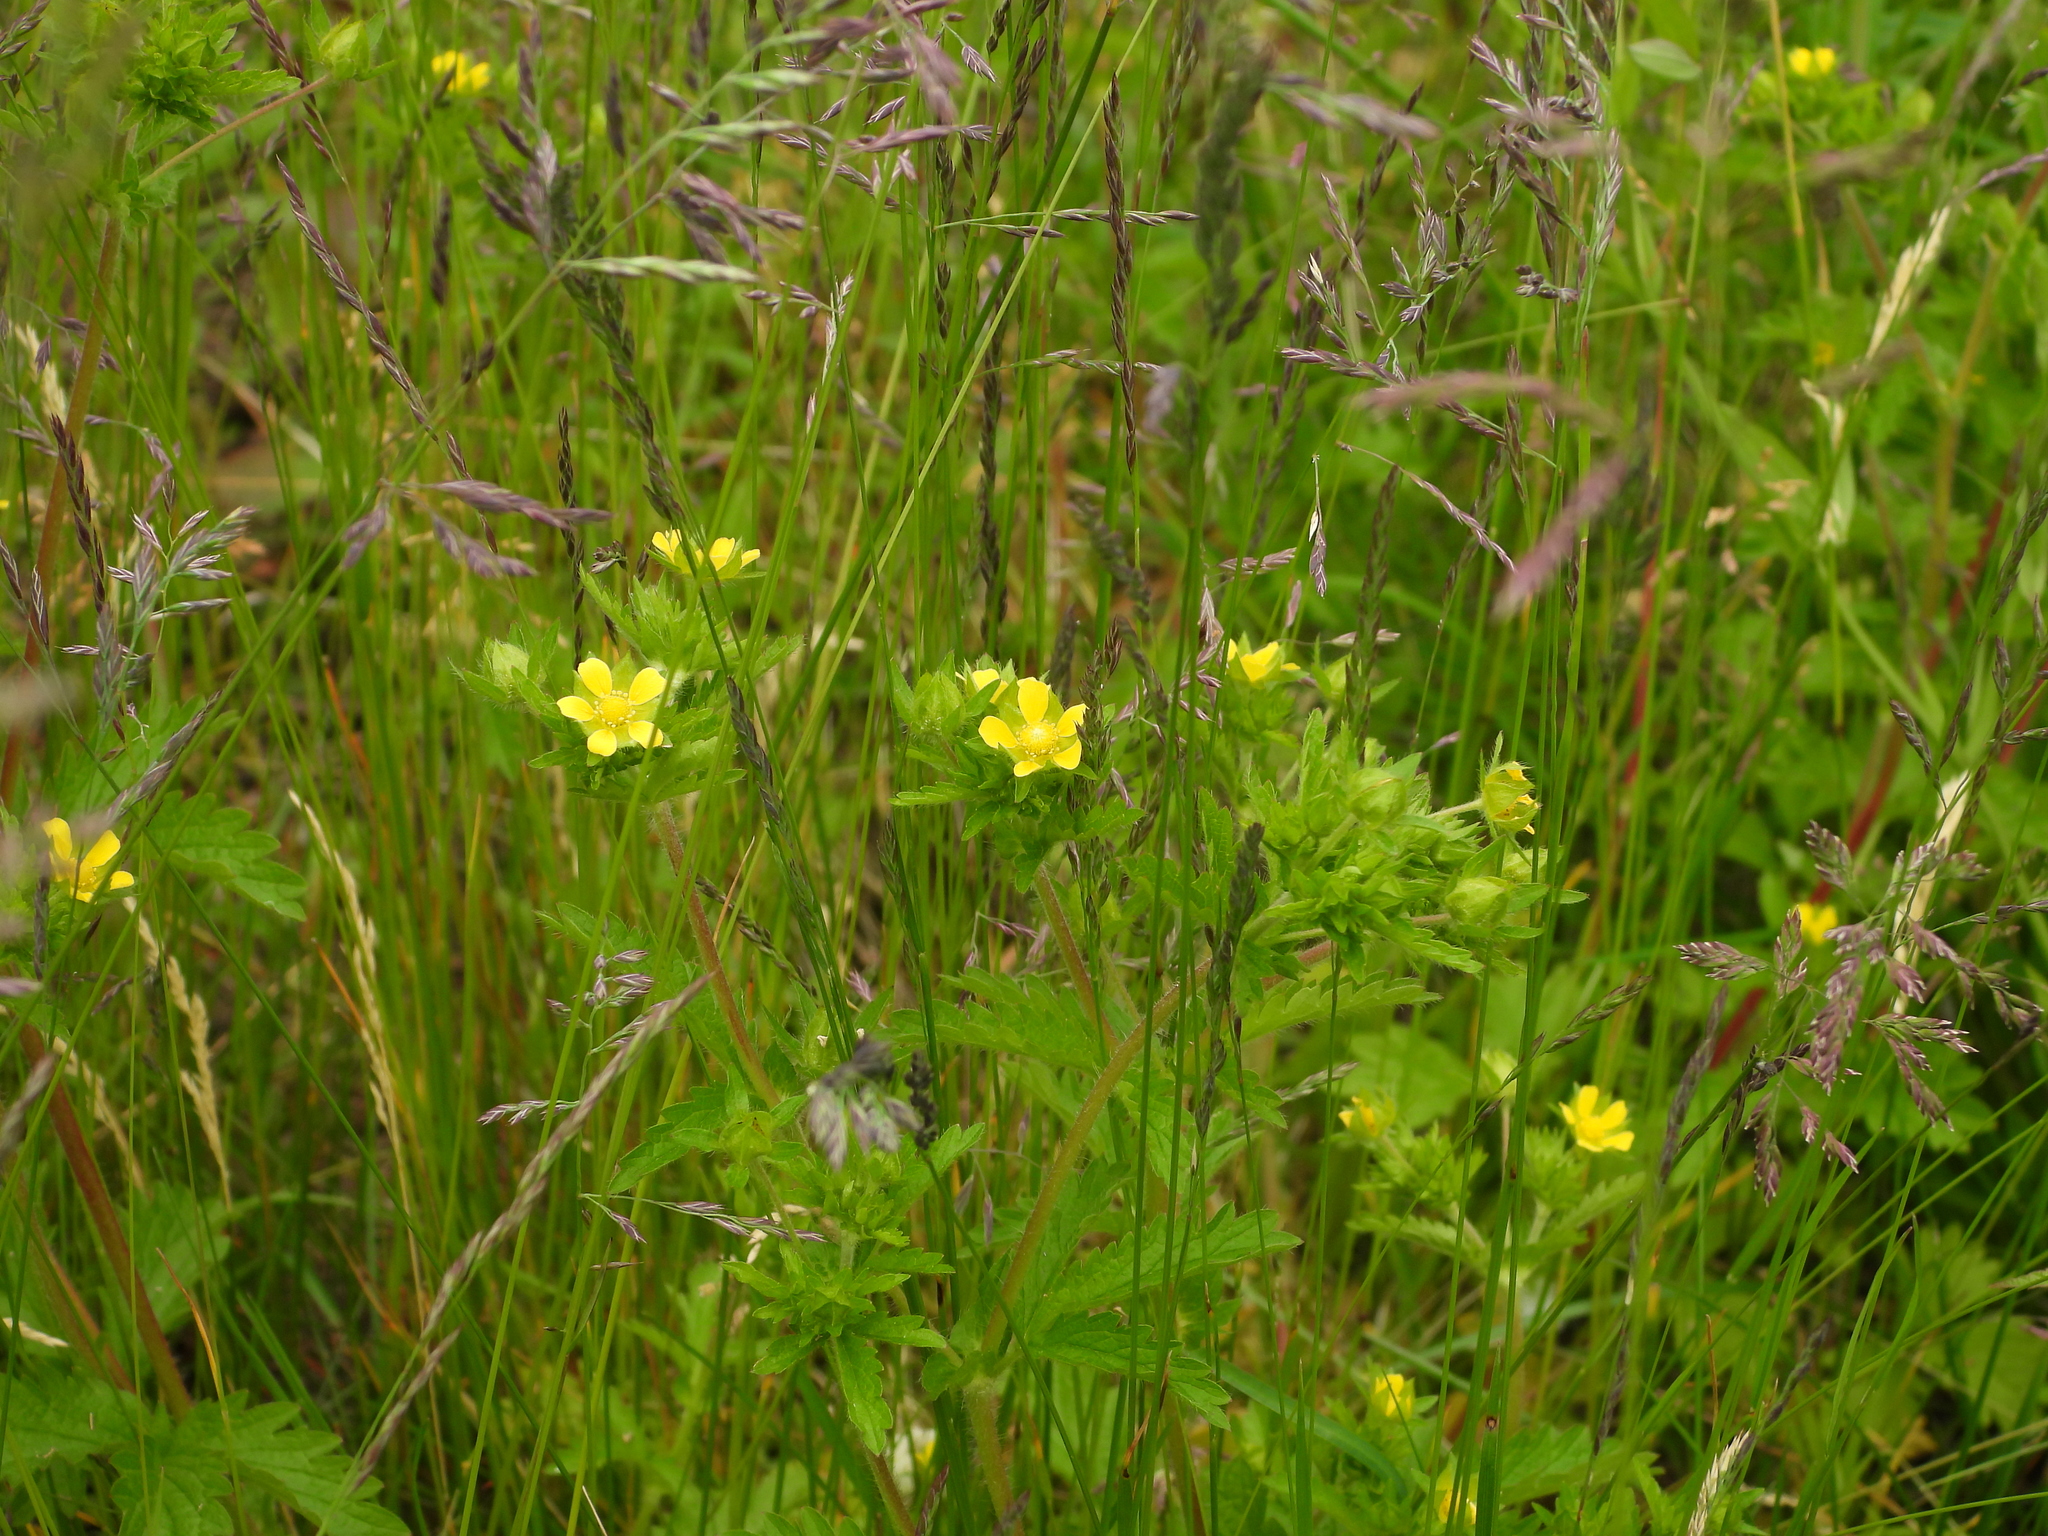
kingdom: Plantae
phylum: Tracheophyta
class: Magnoliopsida
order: Rosales
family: Rosaceae
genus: Potentilla
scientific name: Potentilla norvegica
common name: Ternate-leaved cinquefoil
